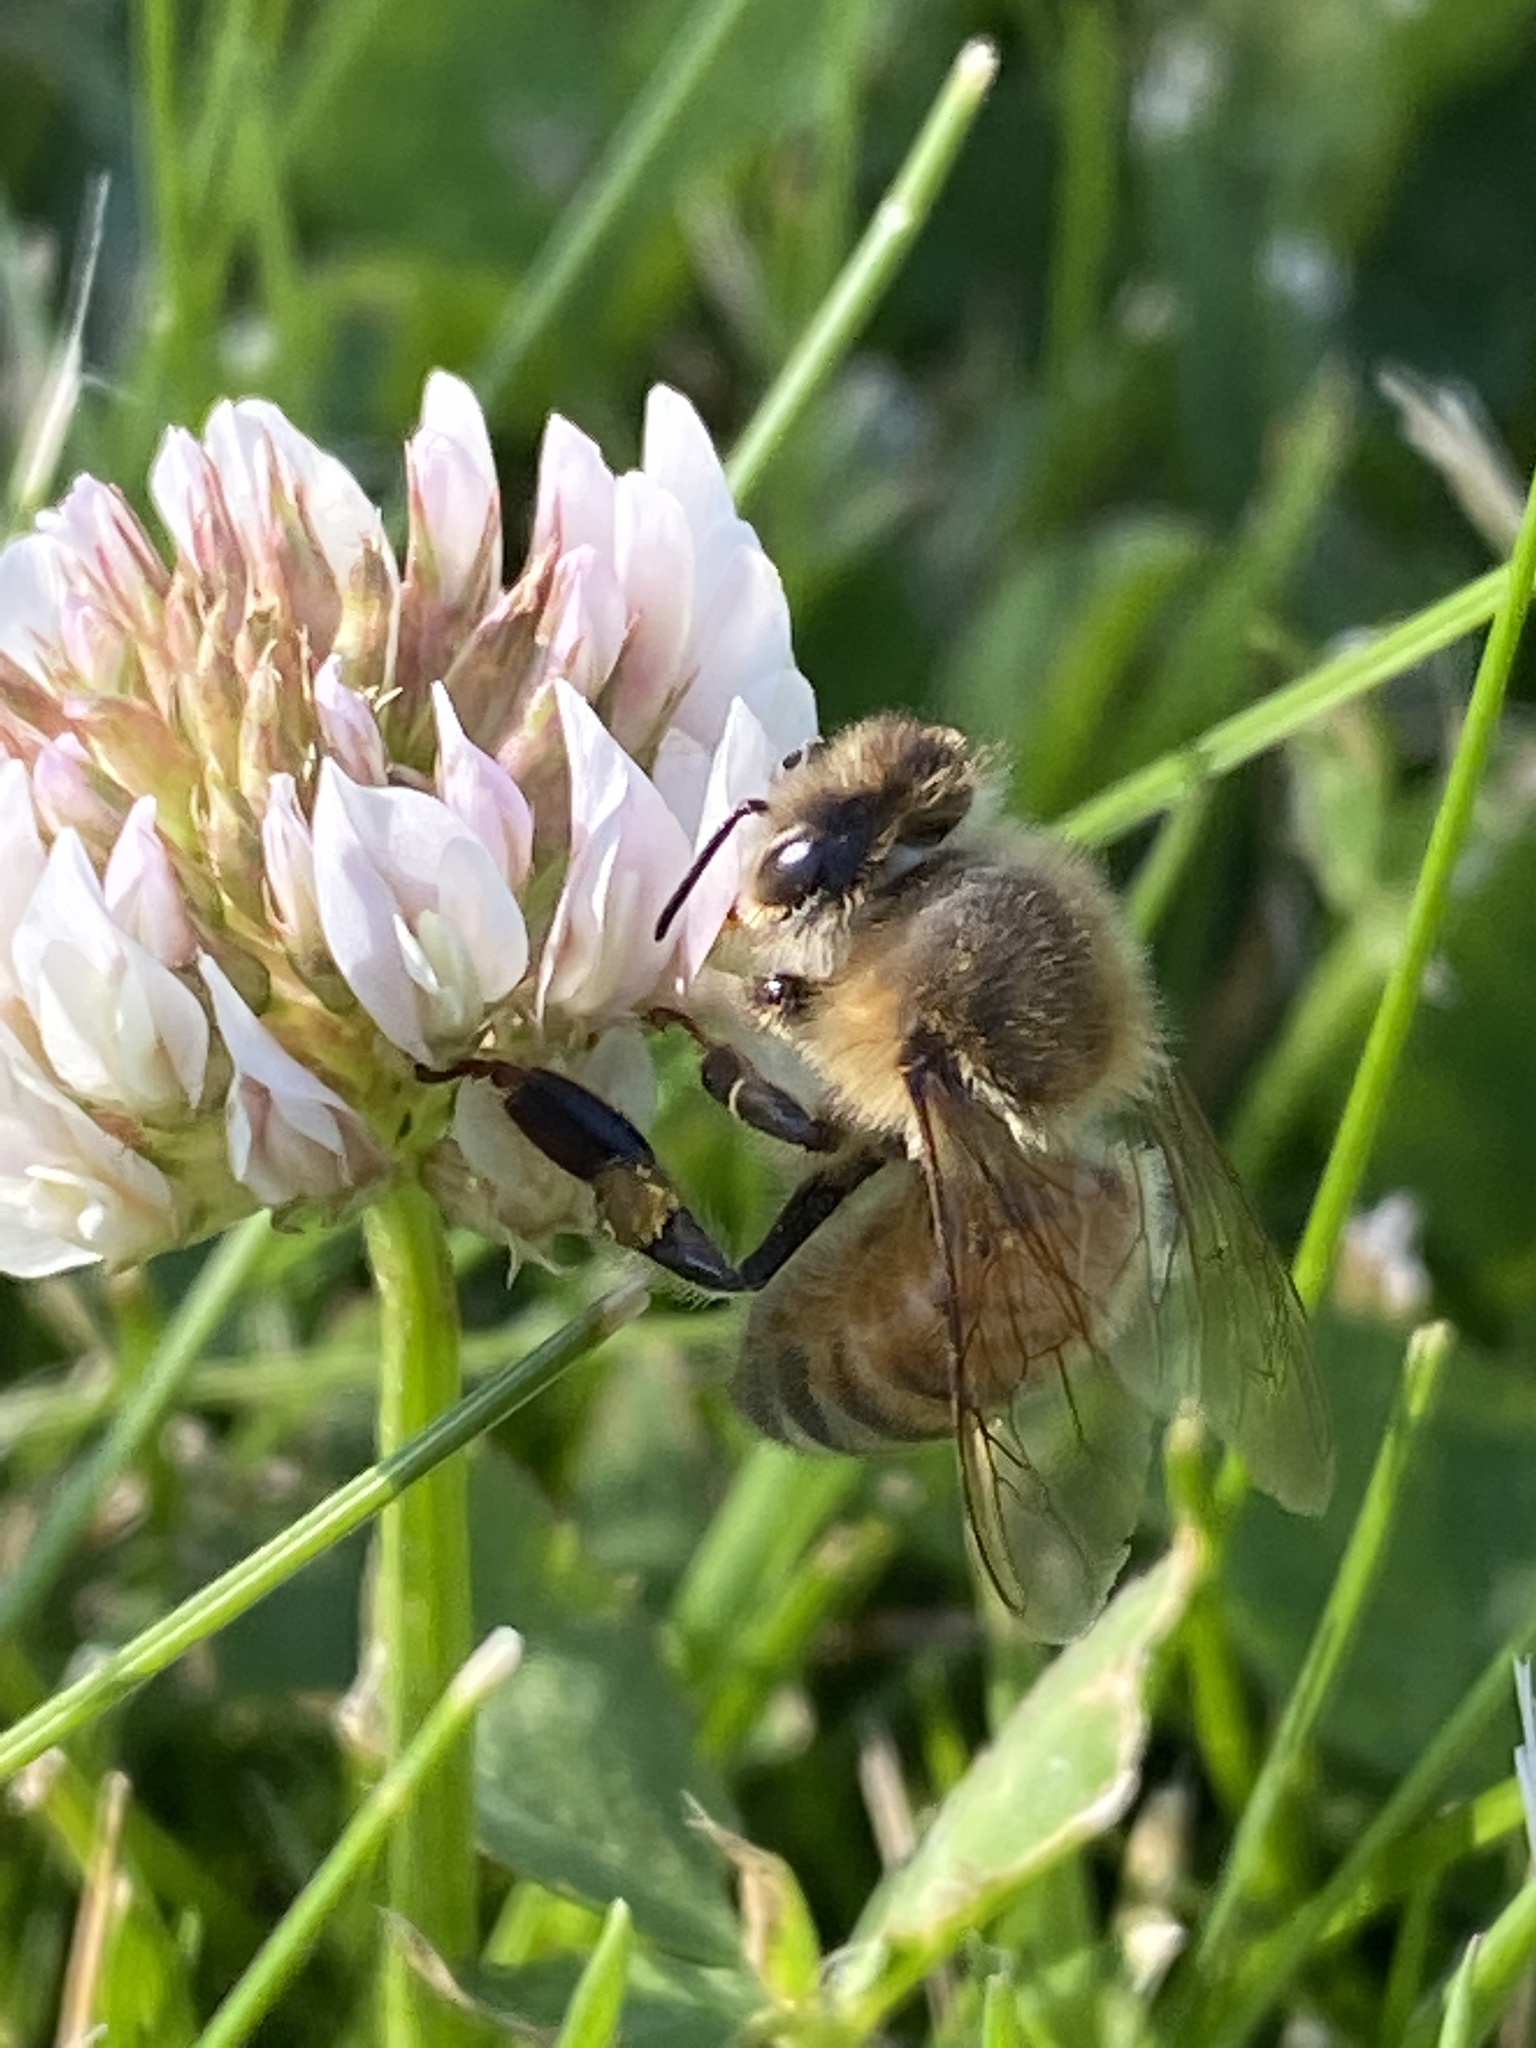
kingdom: Animalia
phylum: Arthropoda
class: Insecta
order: Hymenoptera
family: Apidae
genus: Apis
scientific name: Apis mellifera
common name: Honey bee
